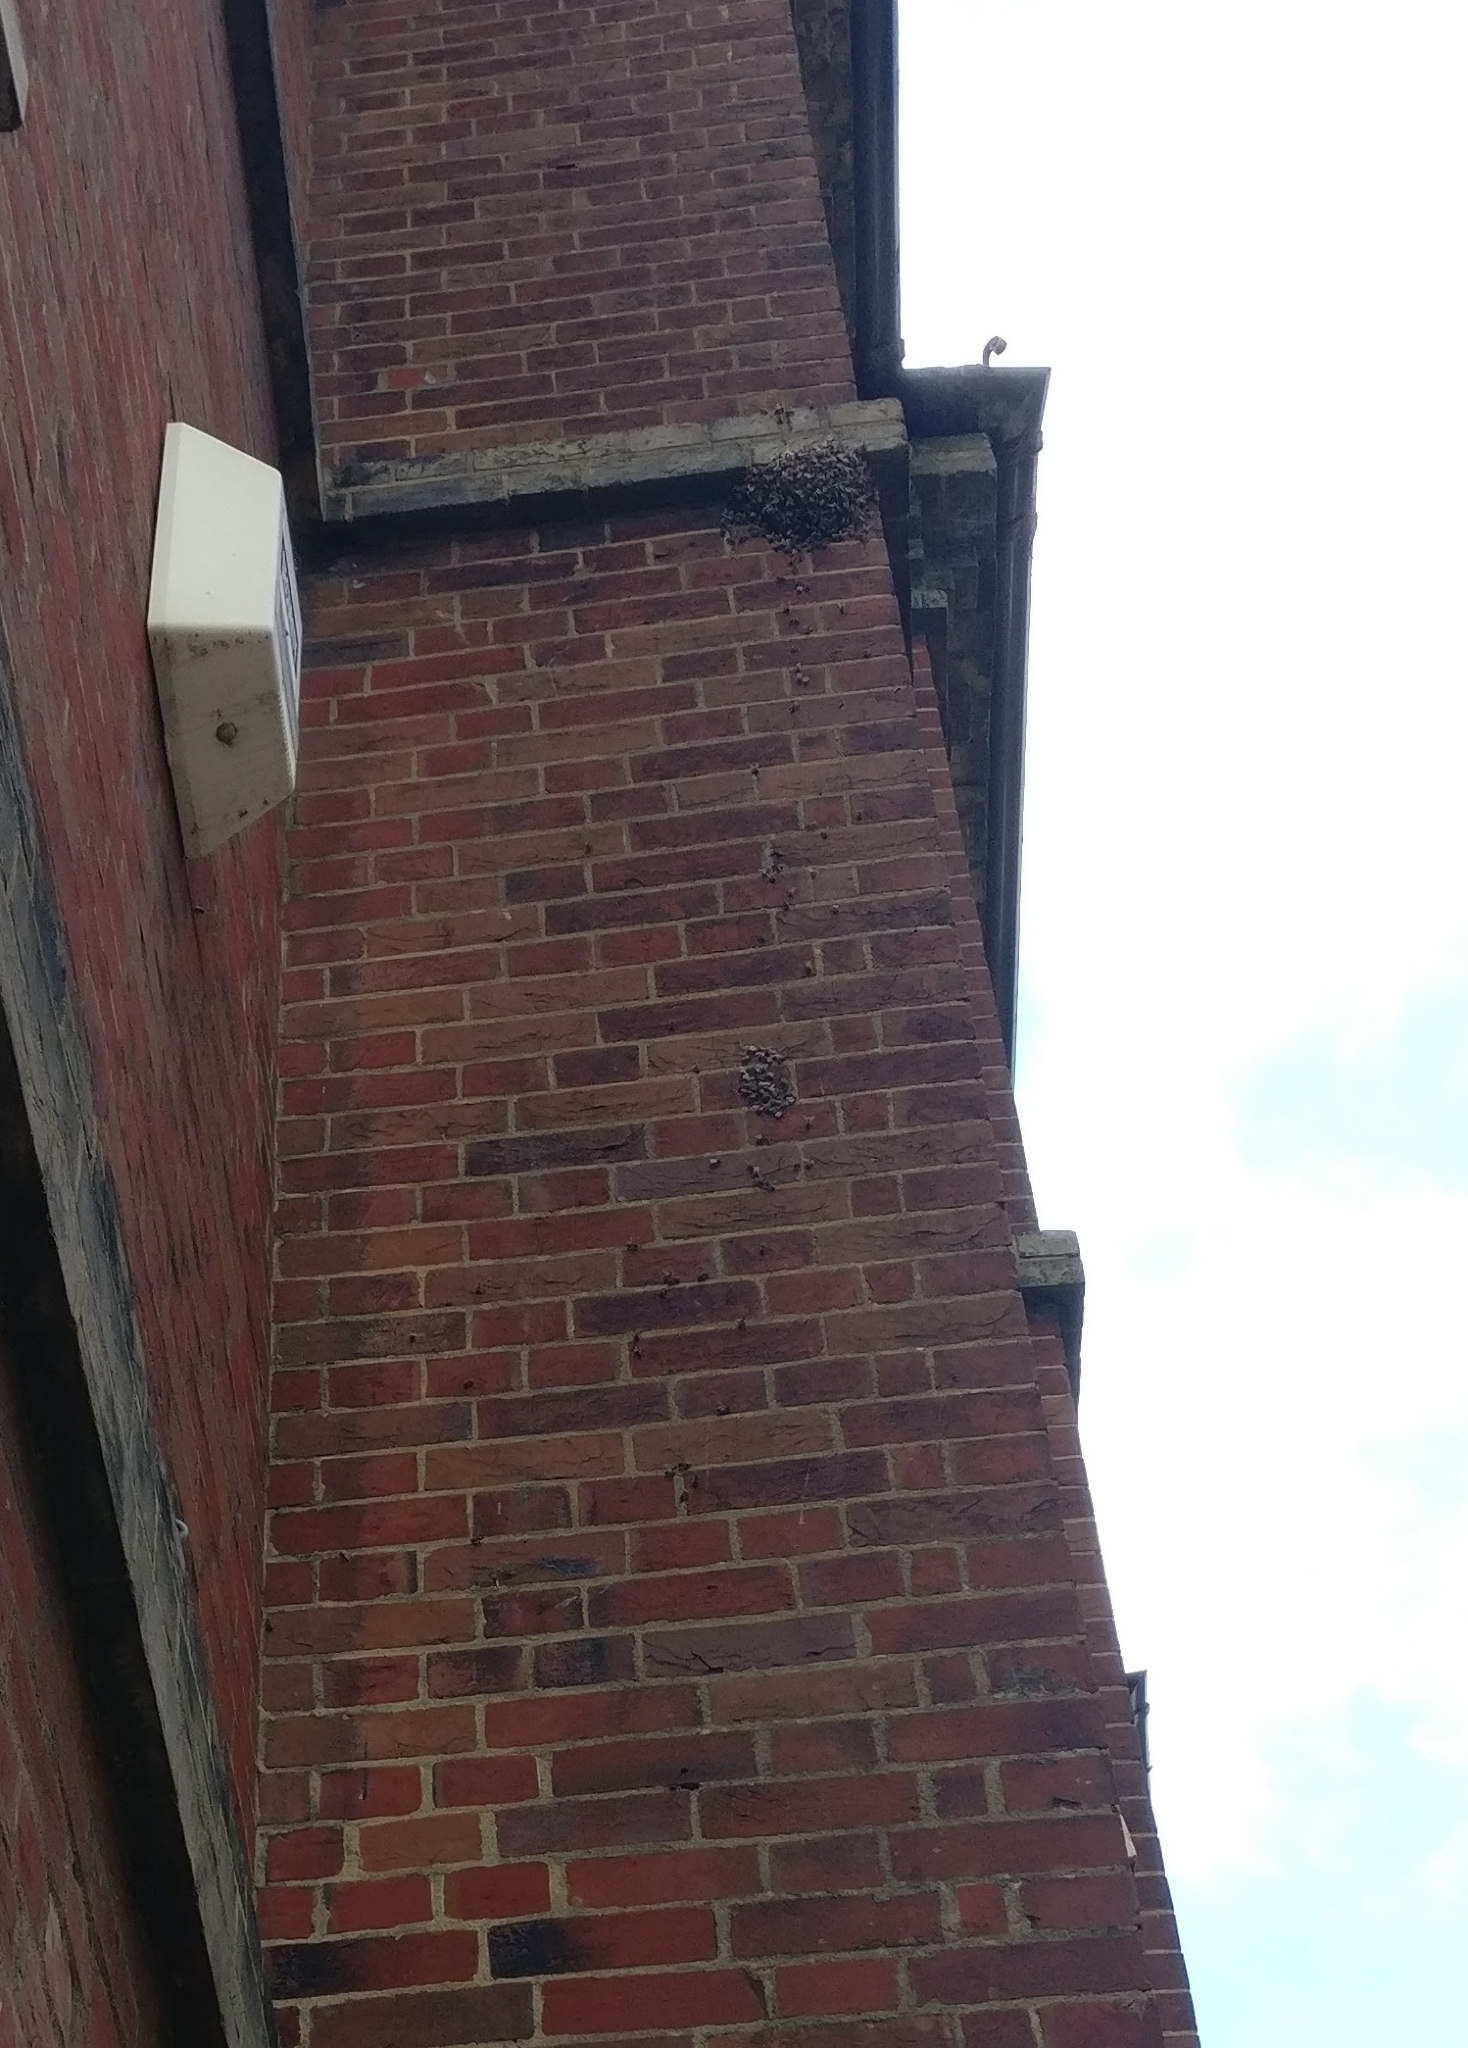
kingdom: Animalia
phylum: Arthropoda
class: Insecta
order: Hymenoptera
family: Apidae
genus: Apis
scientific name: Apis mellifera
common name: Honey bee
